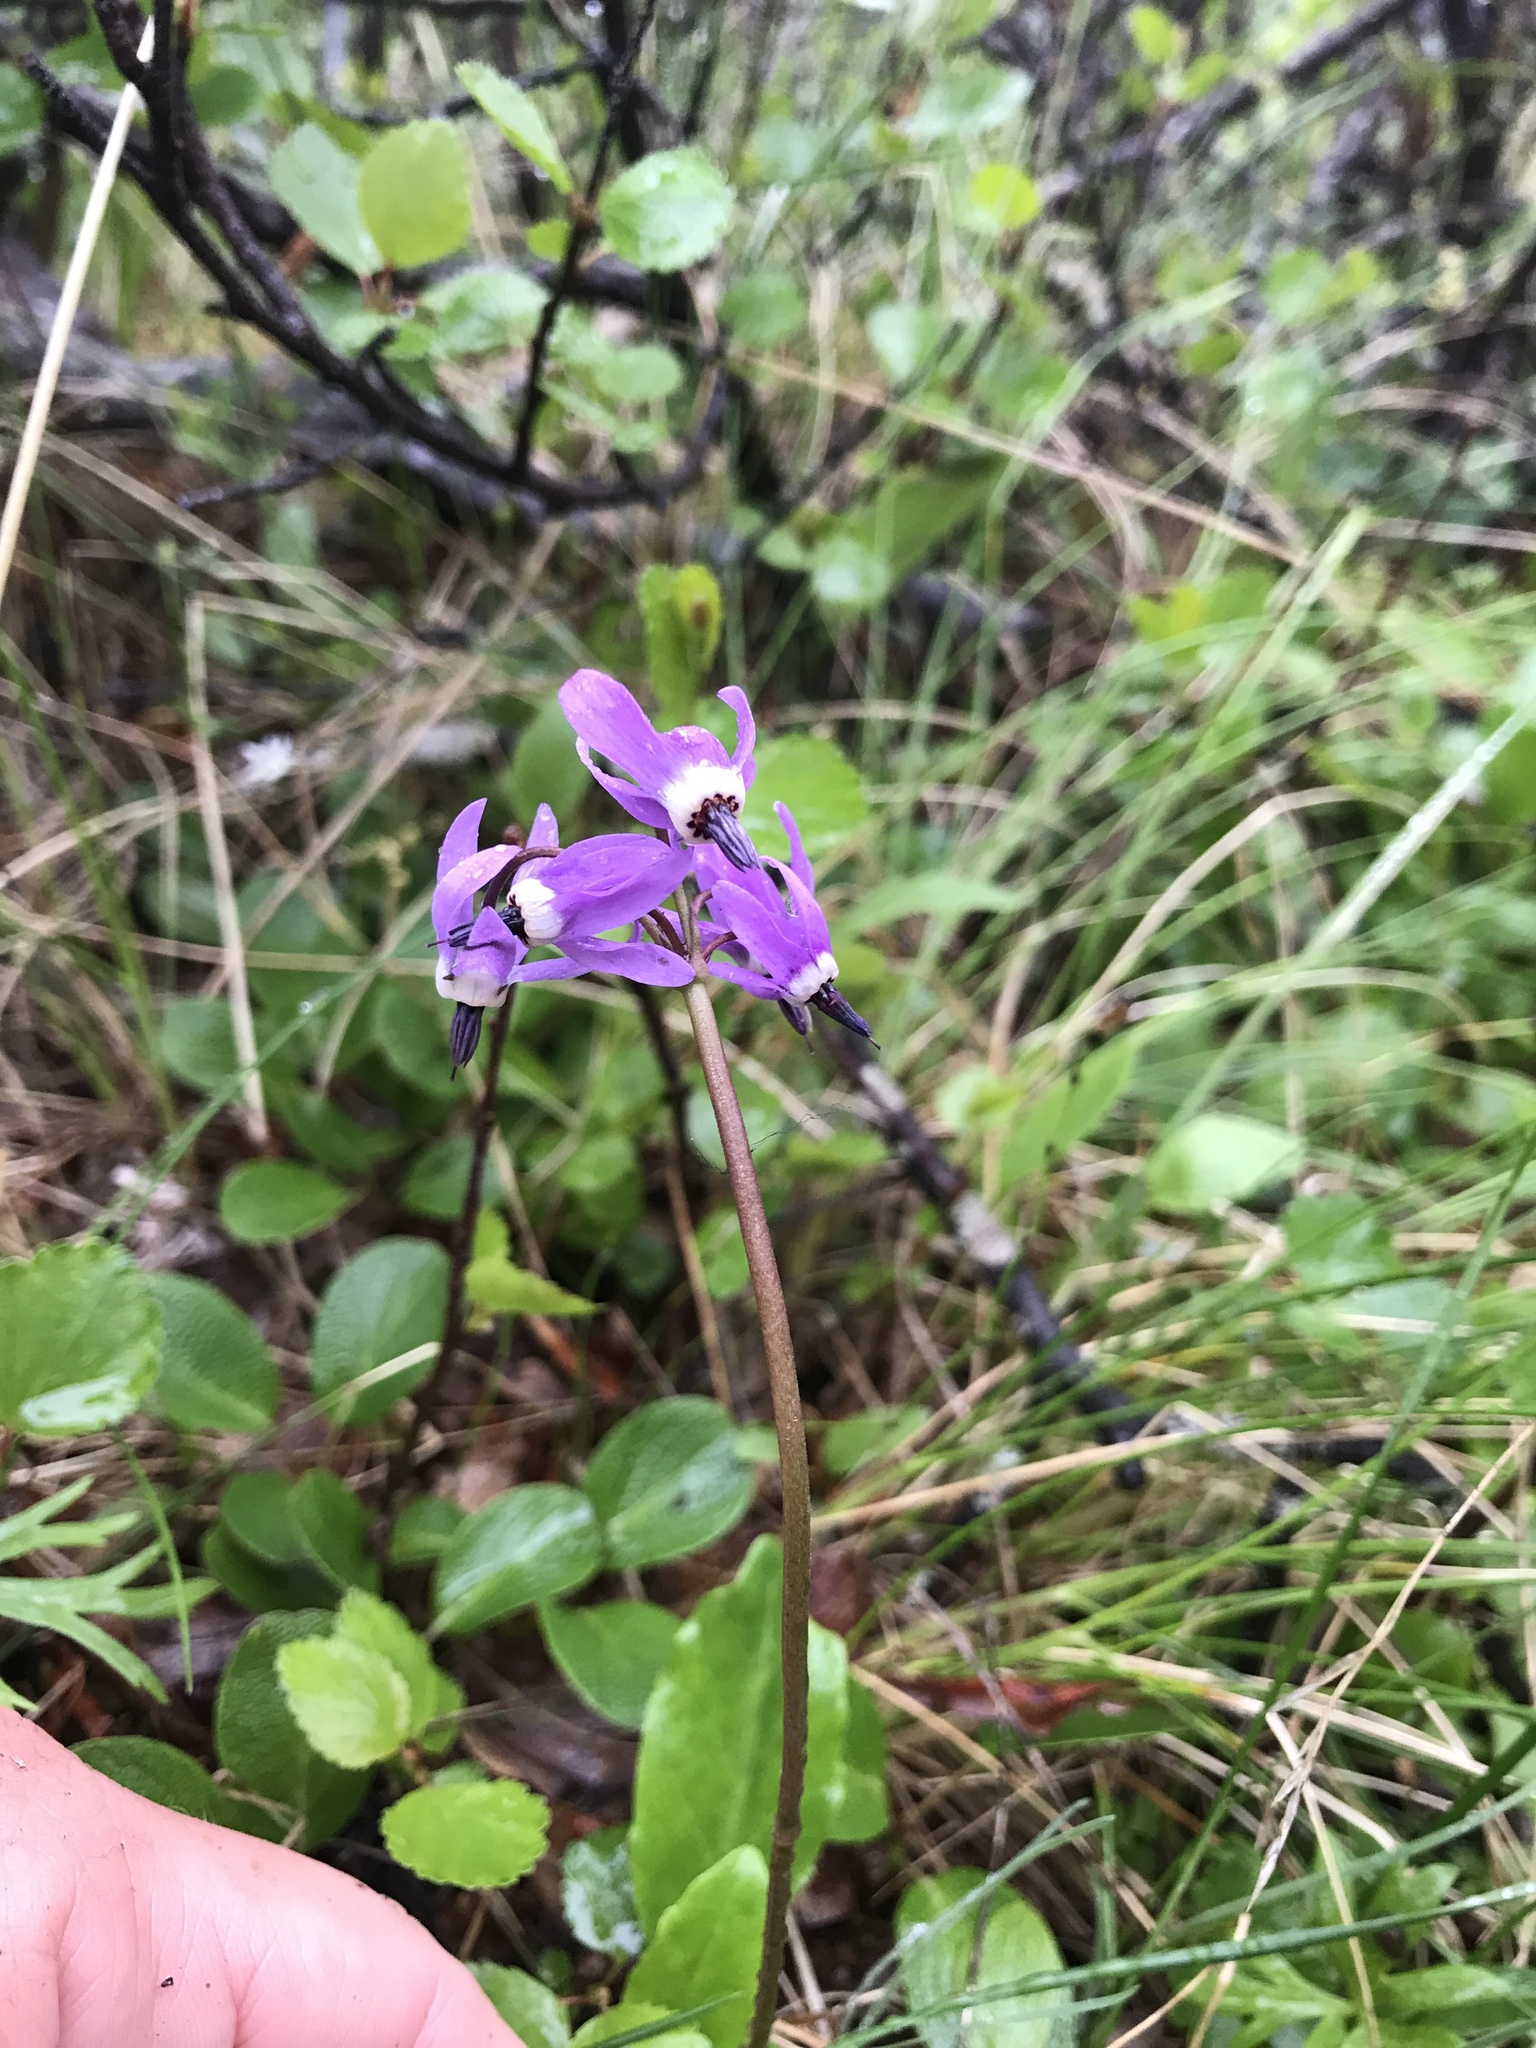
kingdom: Plantae
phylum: Tracheophyta
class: Magnoliopsida
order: Ericales
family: Primulaceae
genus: Dodecatheon
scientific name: Dodecatheon frigidum
